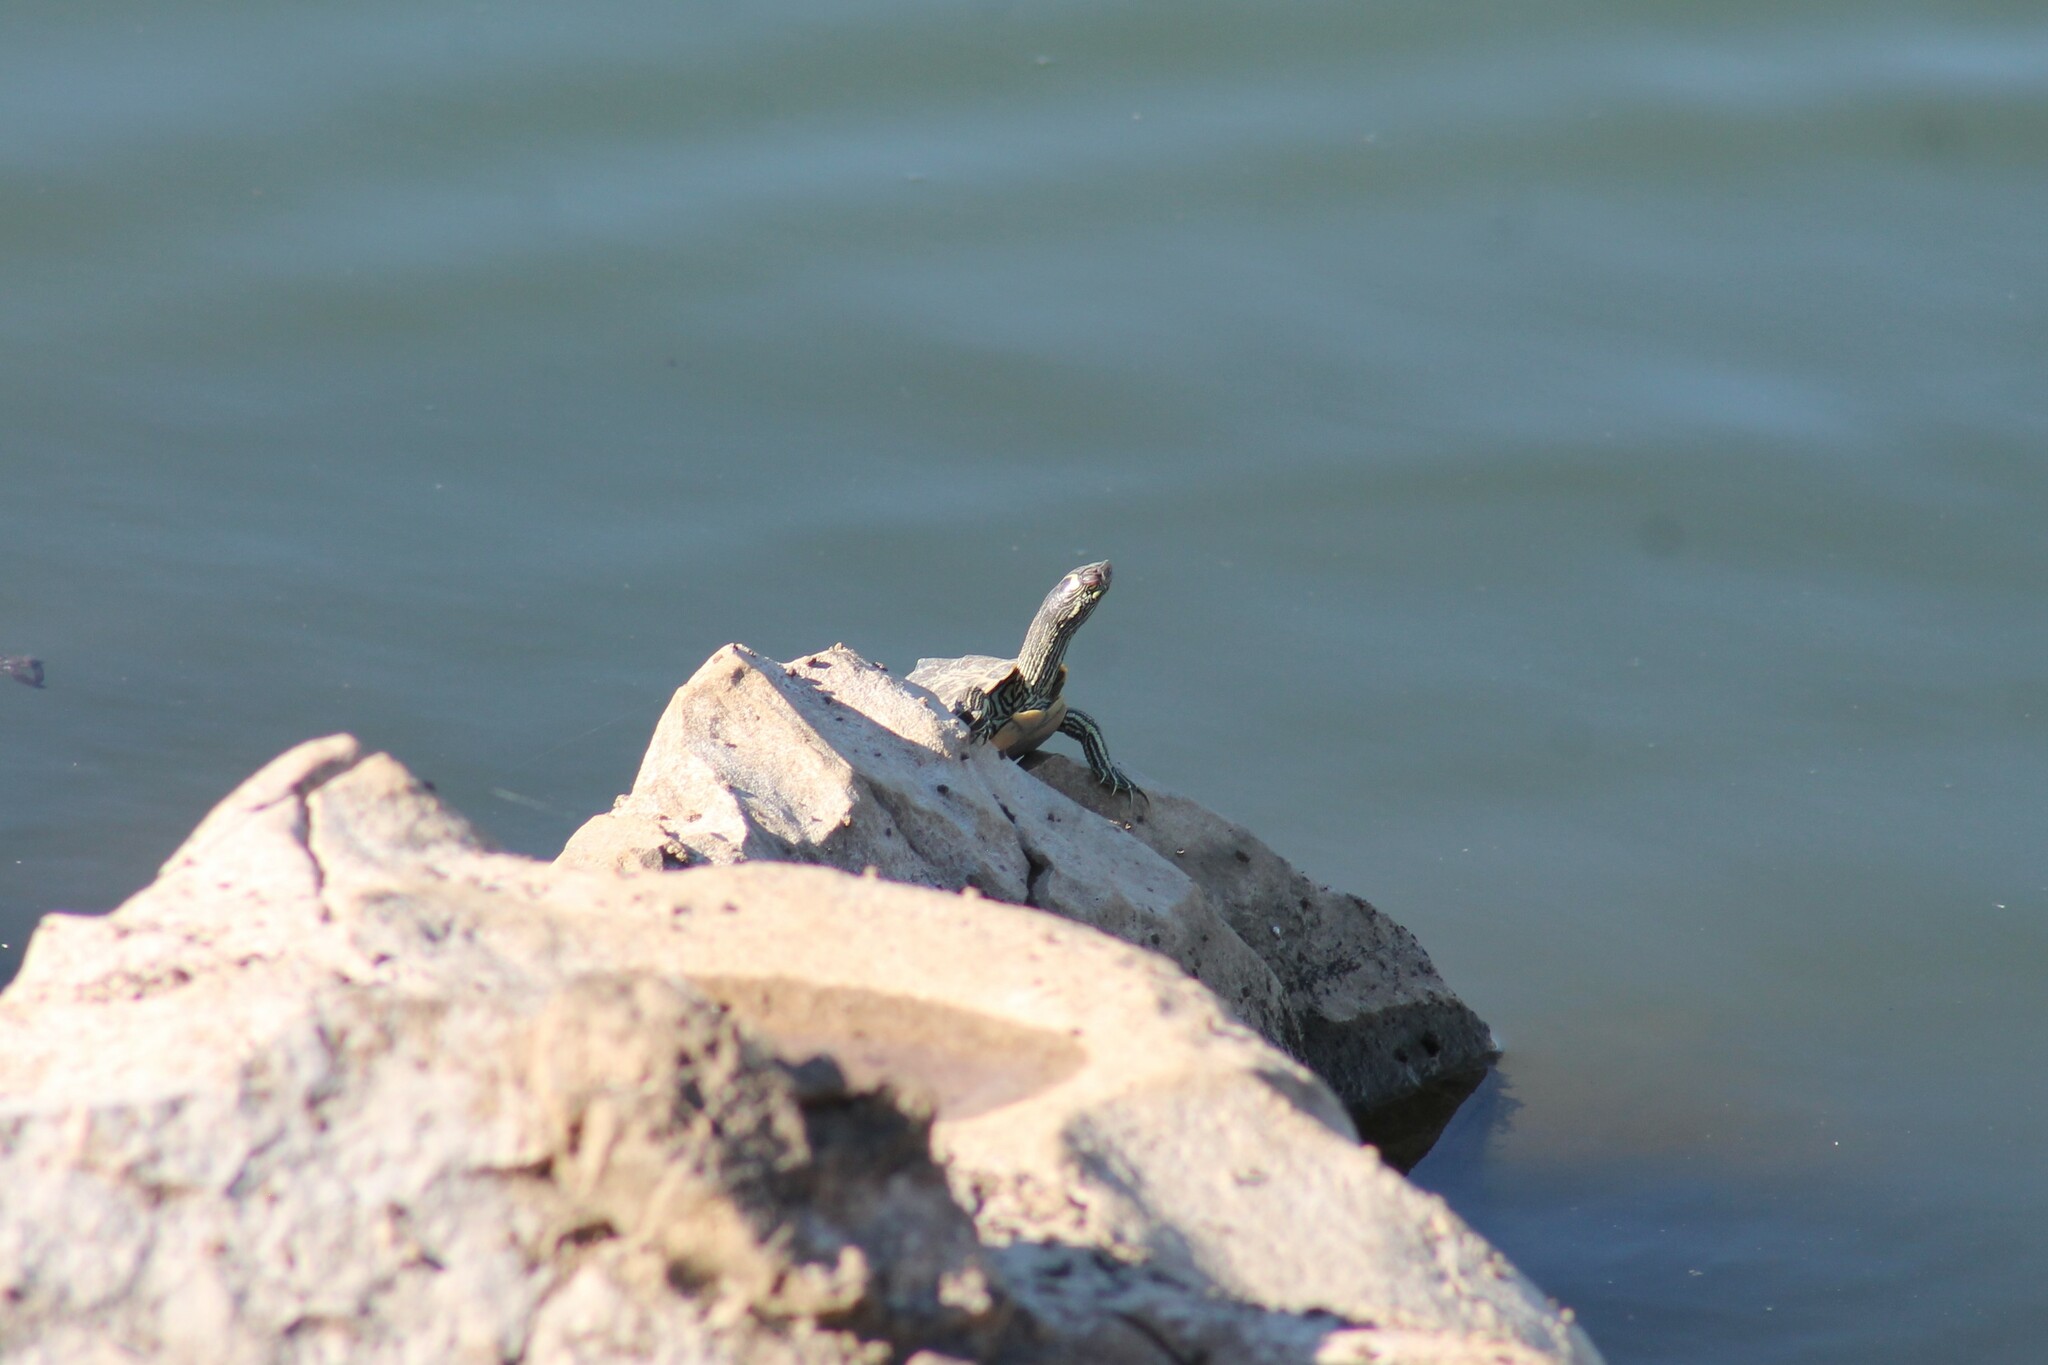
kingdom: Animalia
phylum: Chordata
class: Testudines
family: Emydidae
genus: Graptemys
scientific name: Graptemys ouachitensis
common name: Ouachita map turtle
